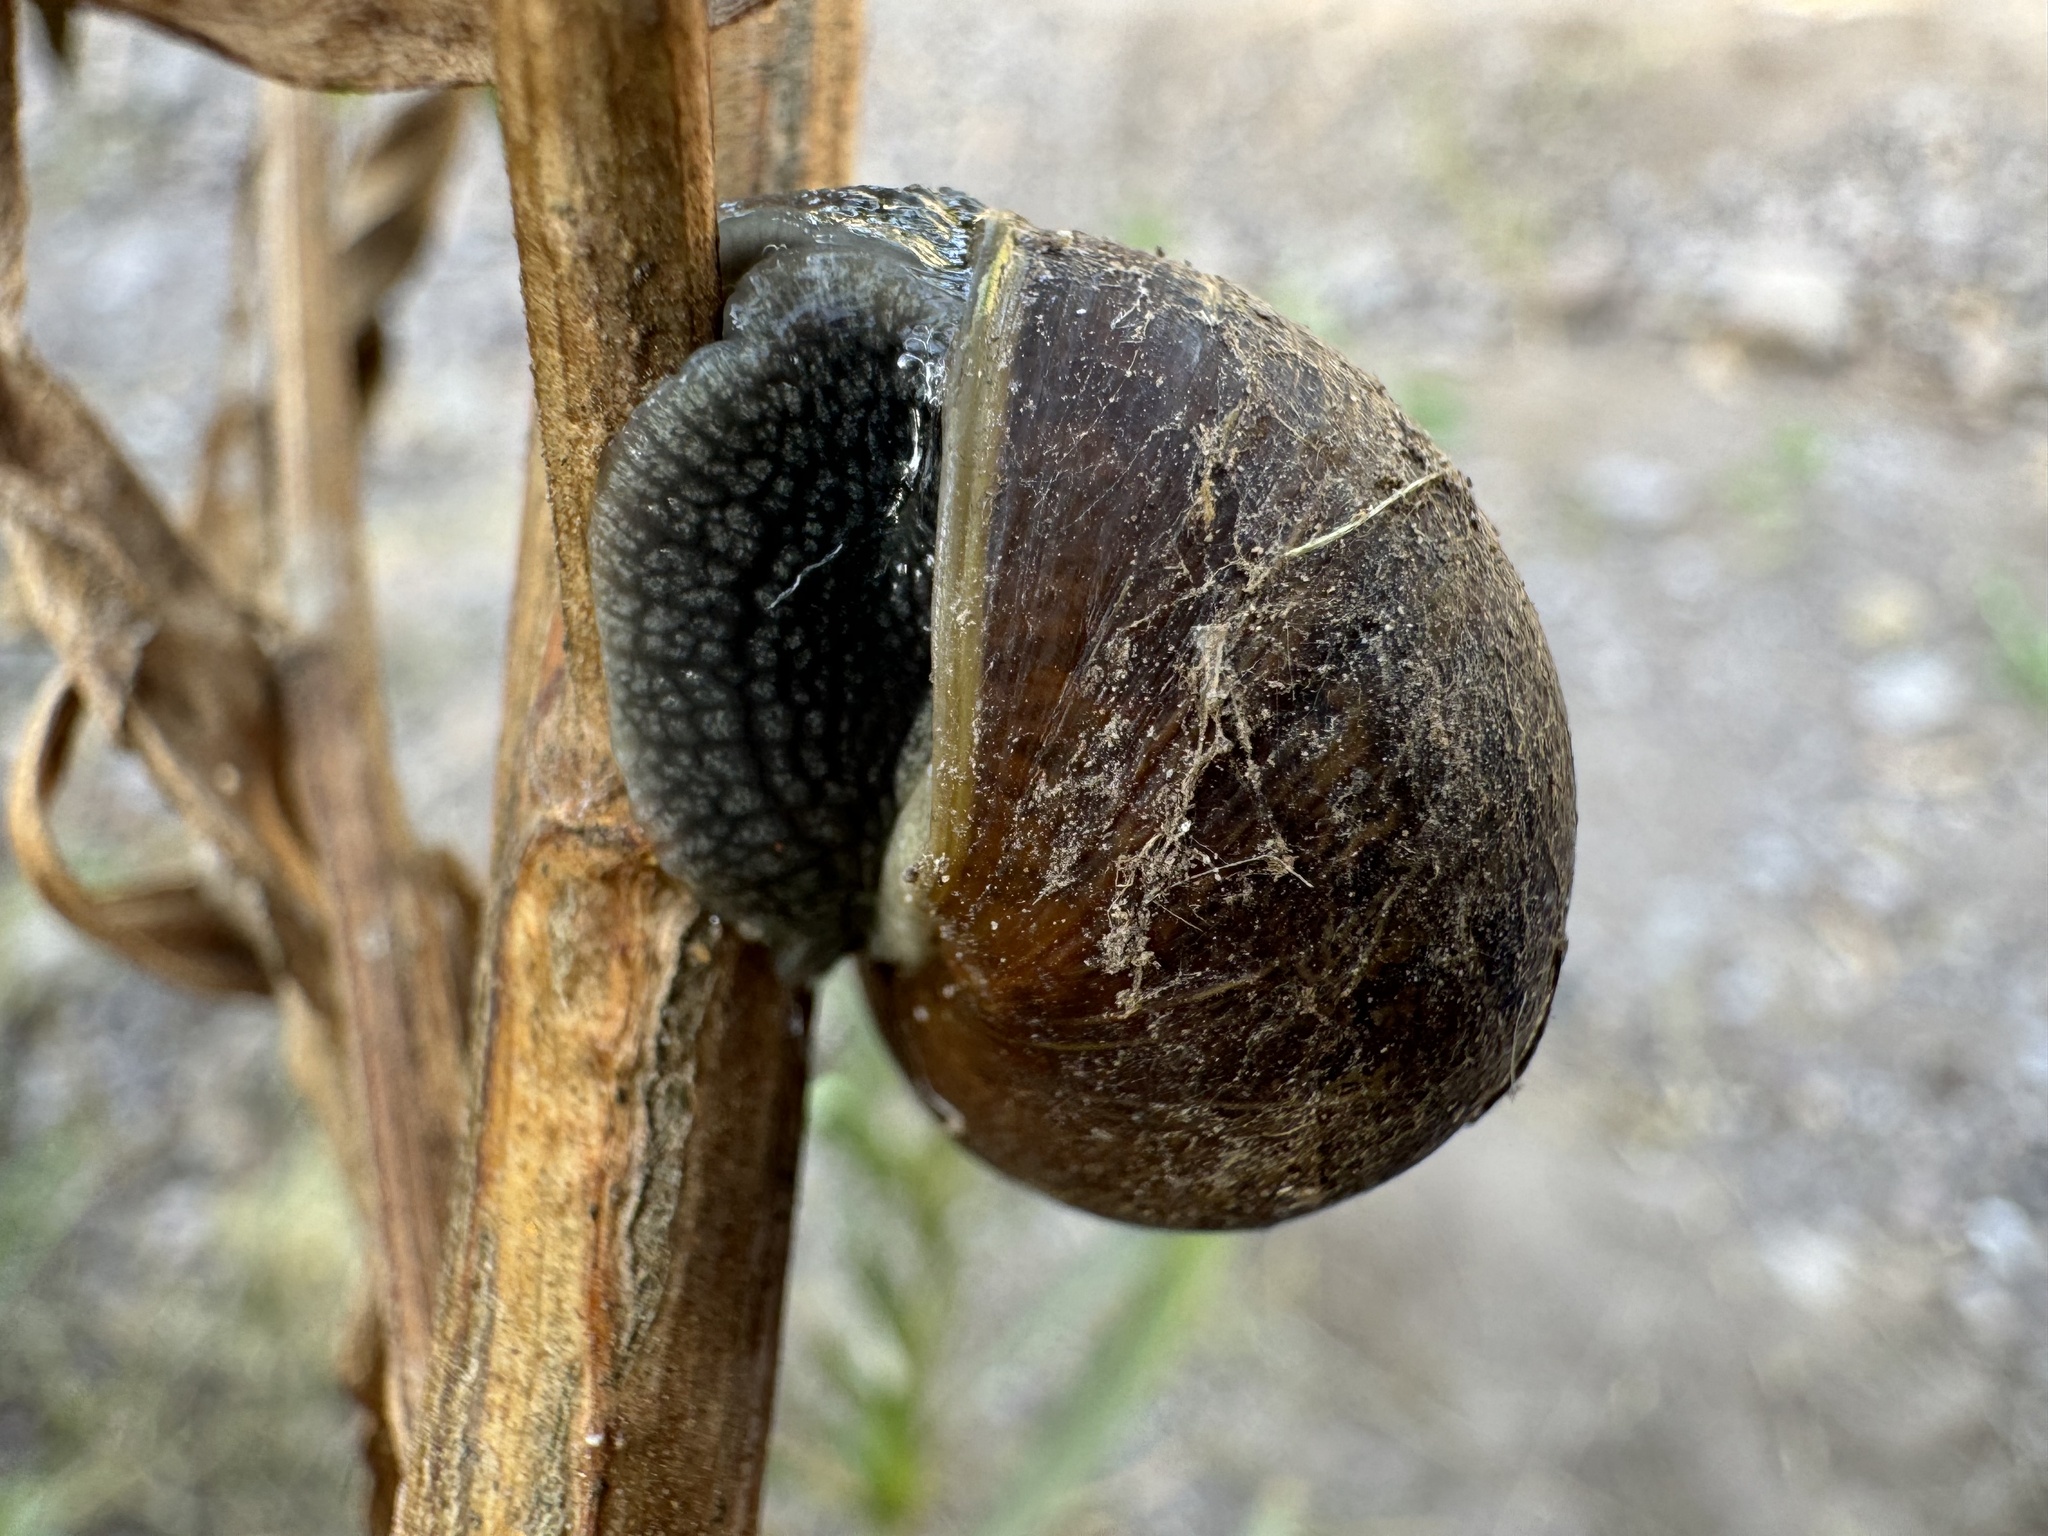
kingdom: Animalia
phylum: Mollusca
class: Gastropoda
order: Stylommatophora
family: Helicidae
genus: Cornu
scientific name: Cornu aspersum
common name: Brown garden snail
